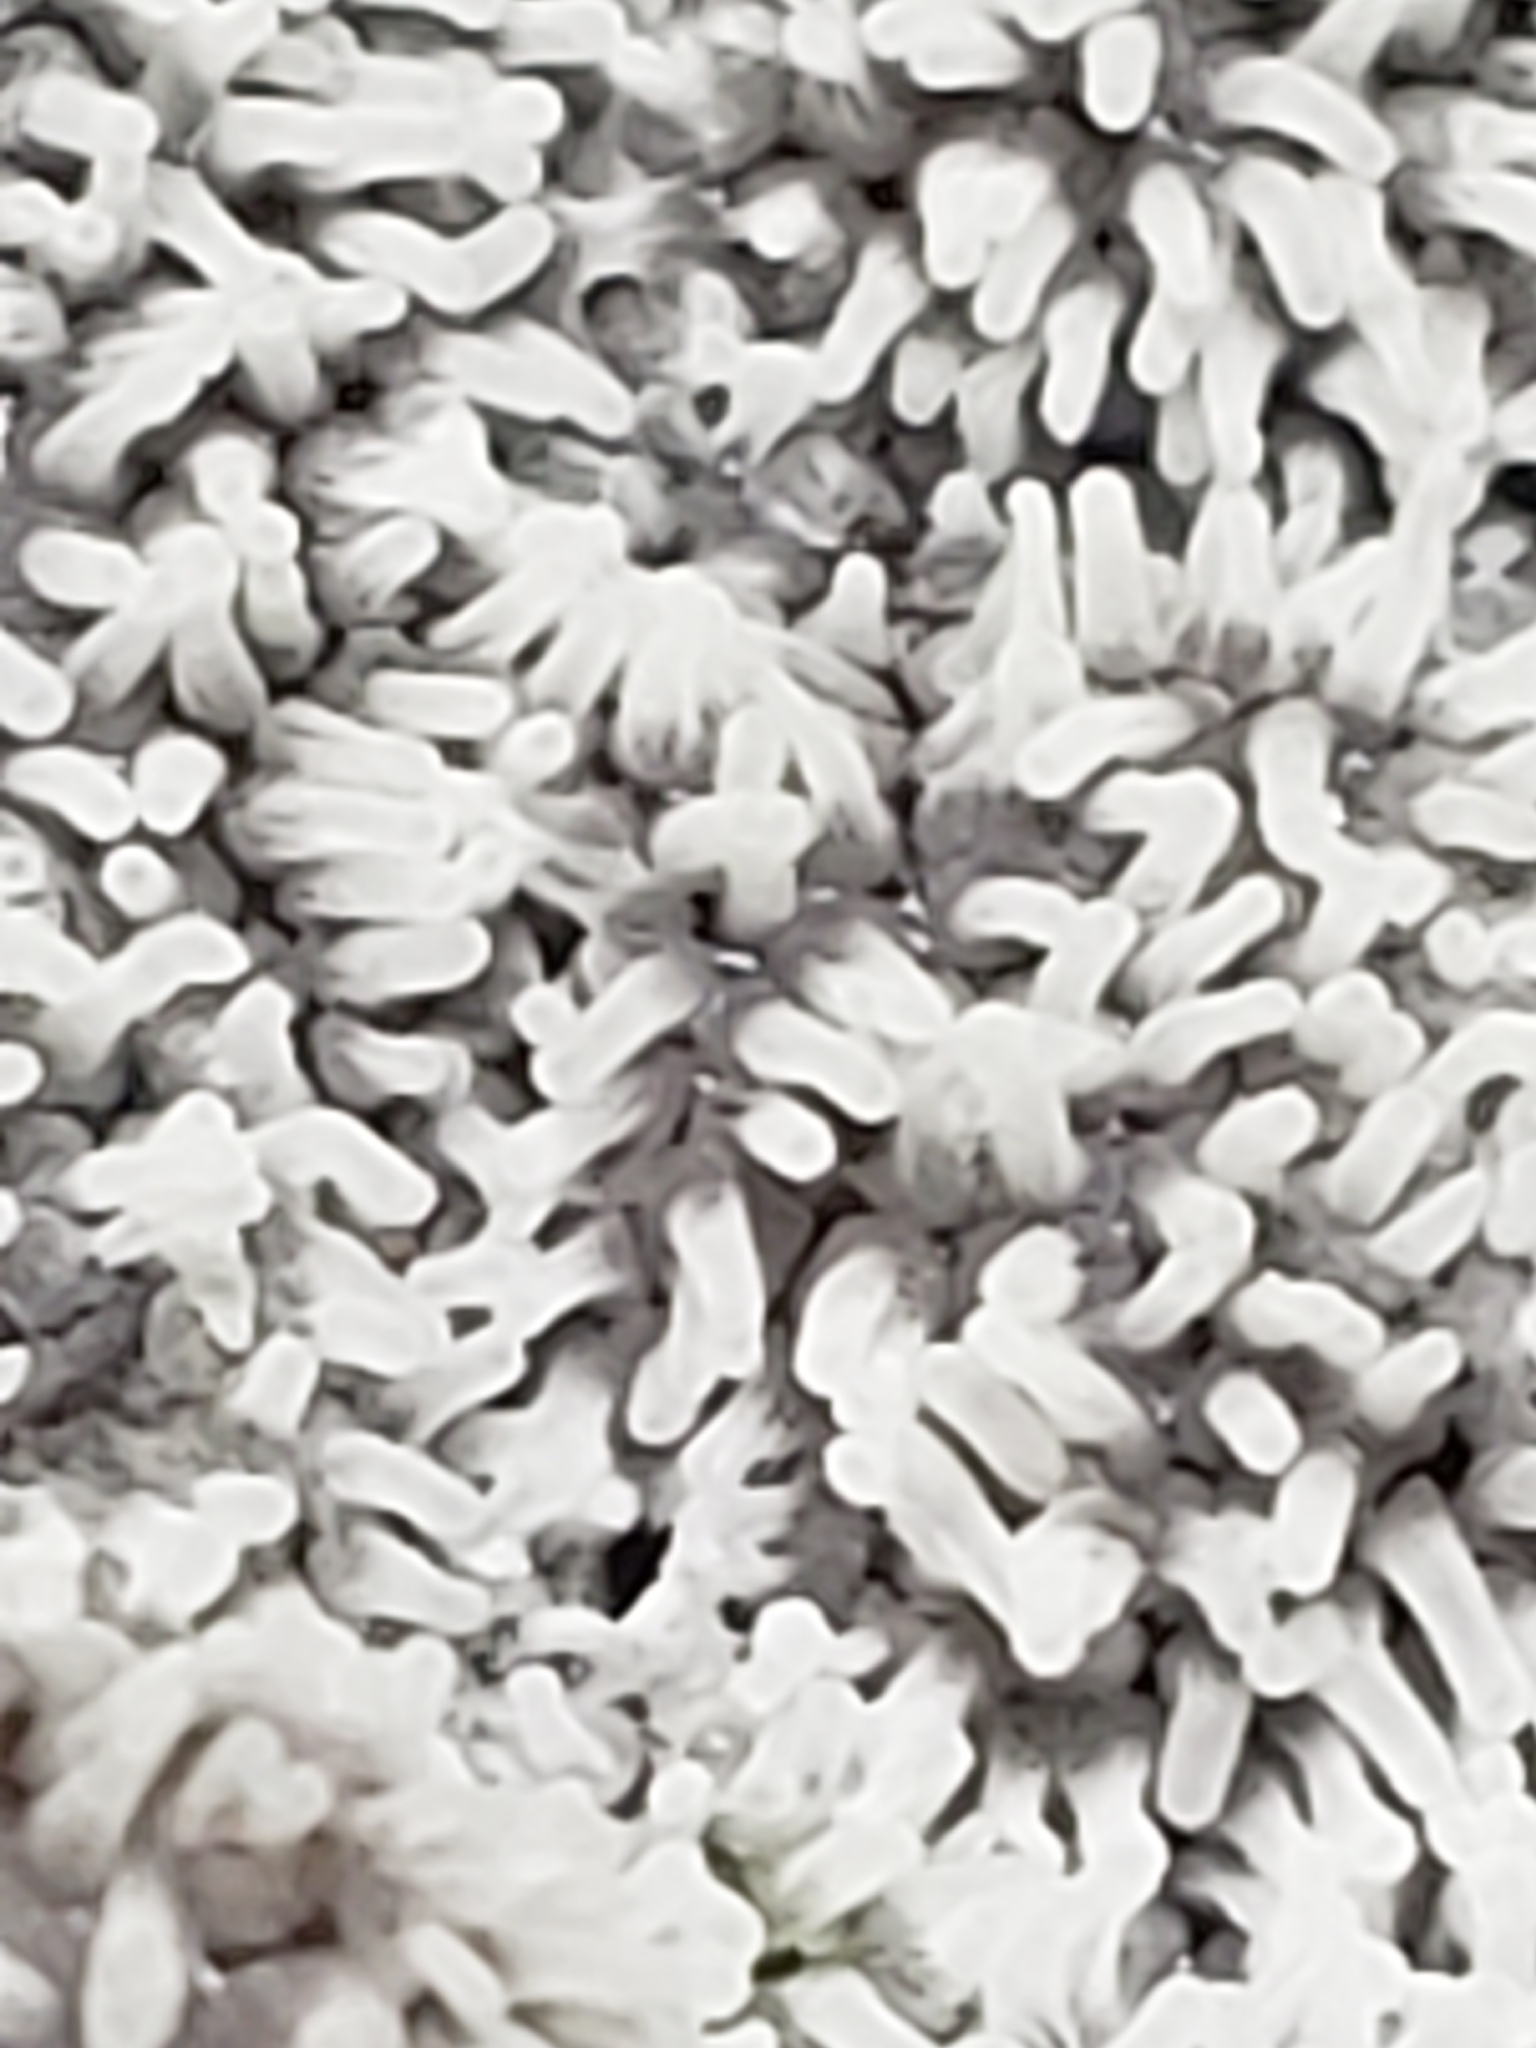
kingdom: Protozoa
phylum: Mycetozoa
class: Protosteliomycetes
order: Ceratiomyxales
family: Ceratiomyxaceae
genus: Ceratiomyxa
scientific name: Ceratiomyxa fruticulosa
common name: Honeycomb coral slime mold
